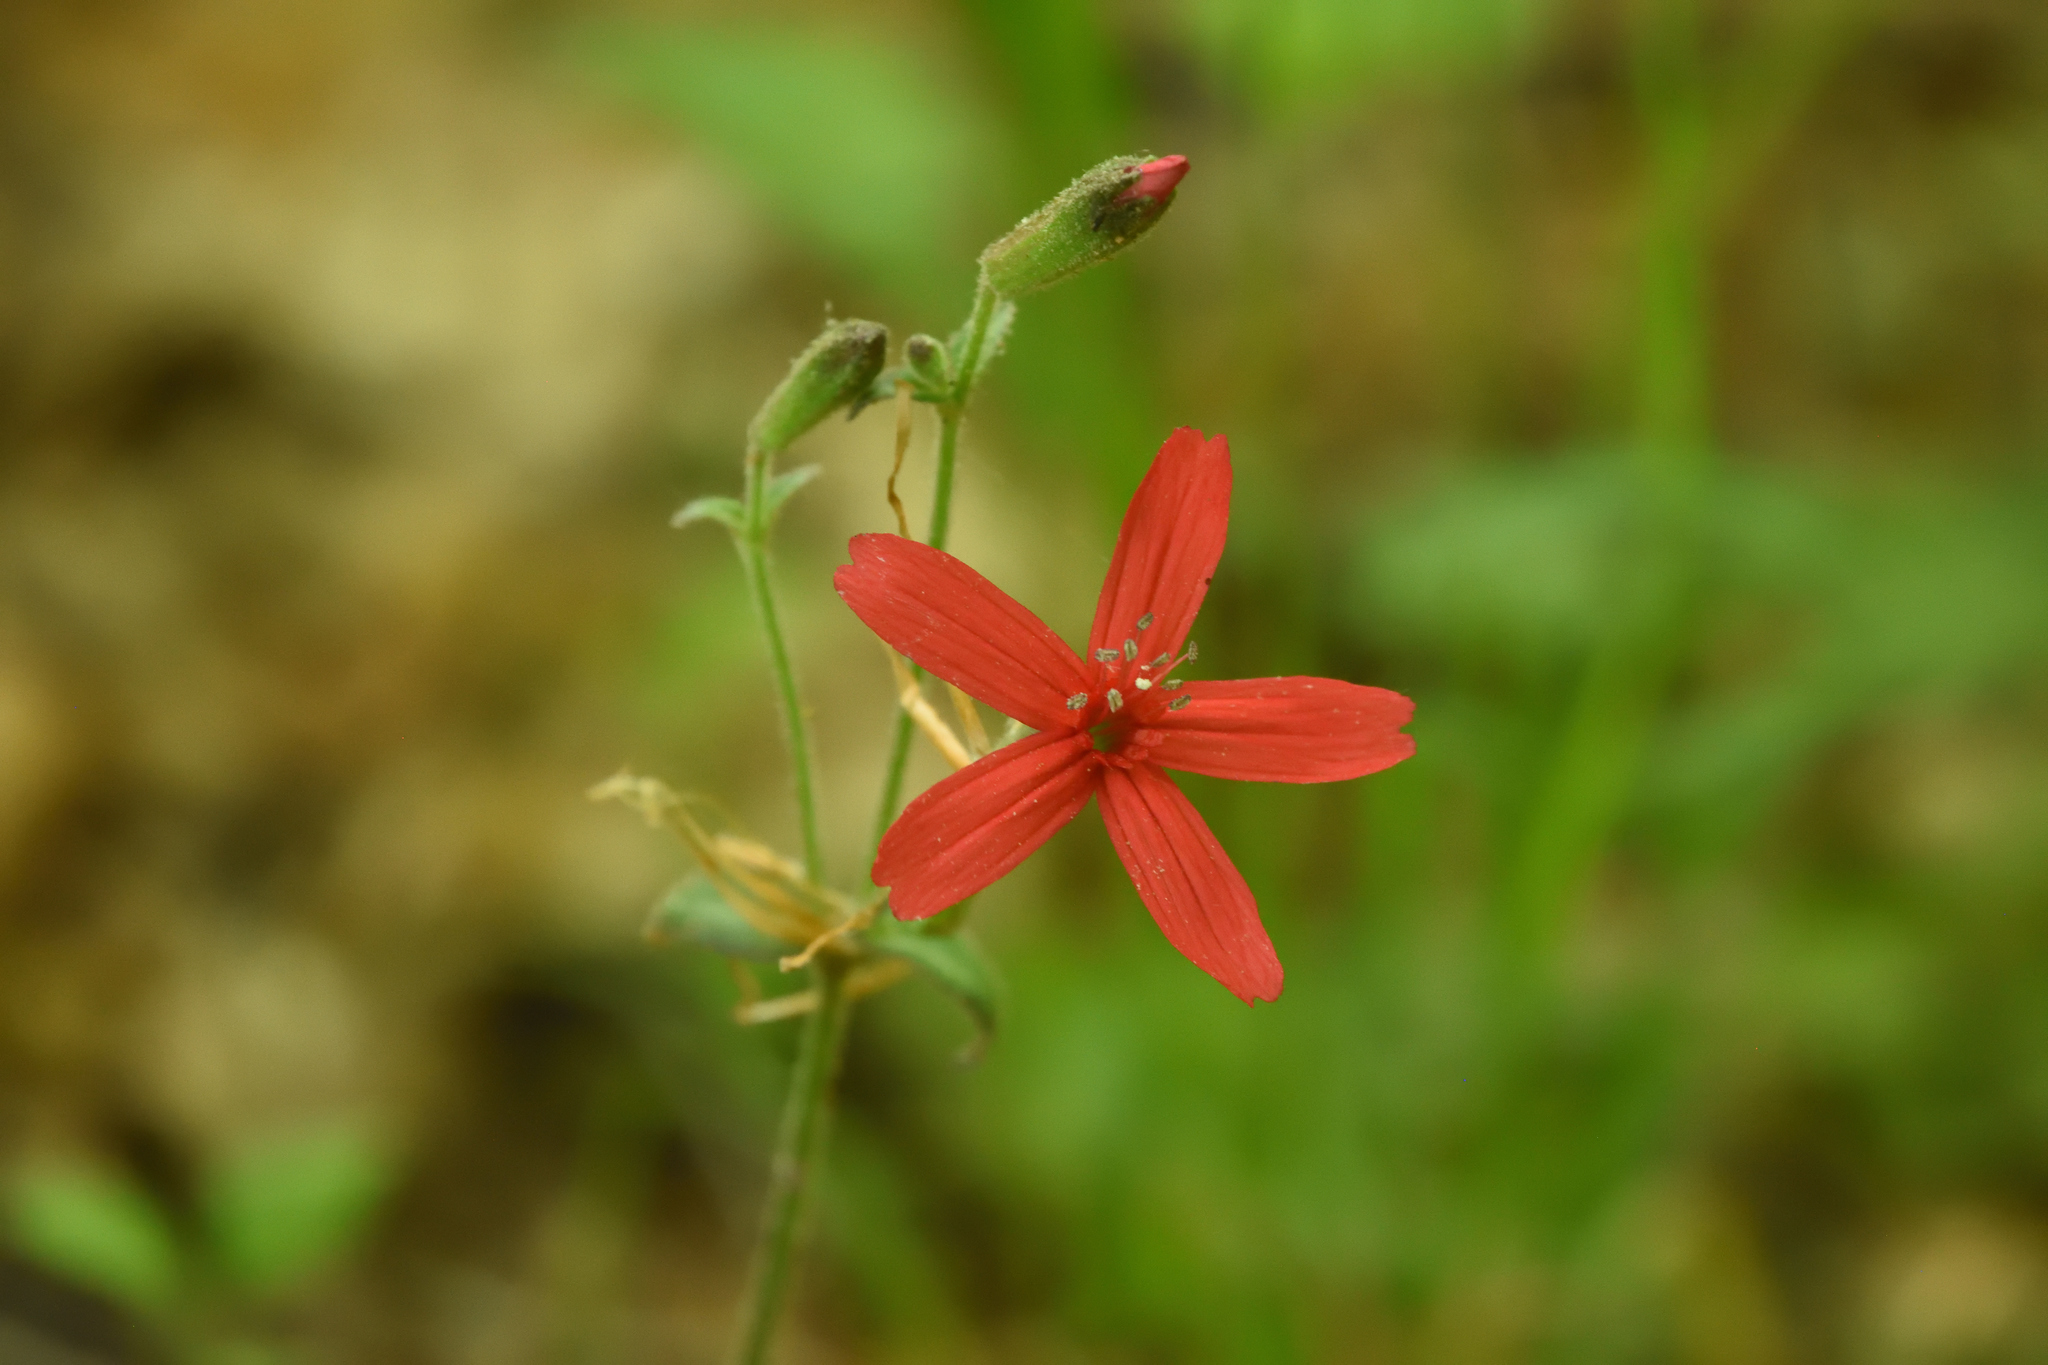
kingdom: Plantae
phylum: Tracheophyta
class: Magnoliopsida
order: Caryophyllales
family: Caryophyllaceae
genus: Silene
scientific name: Silene virginica
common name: Fire-pink
